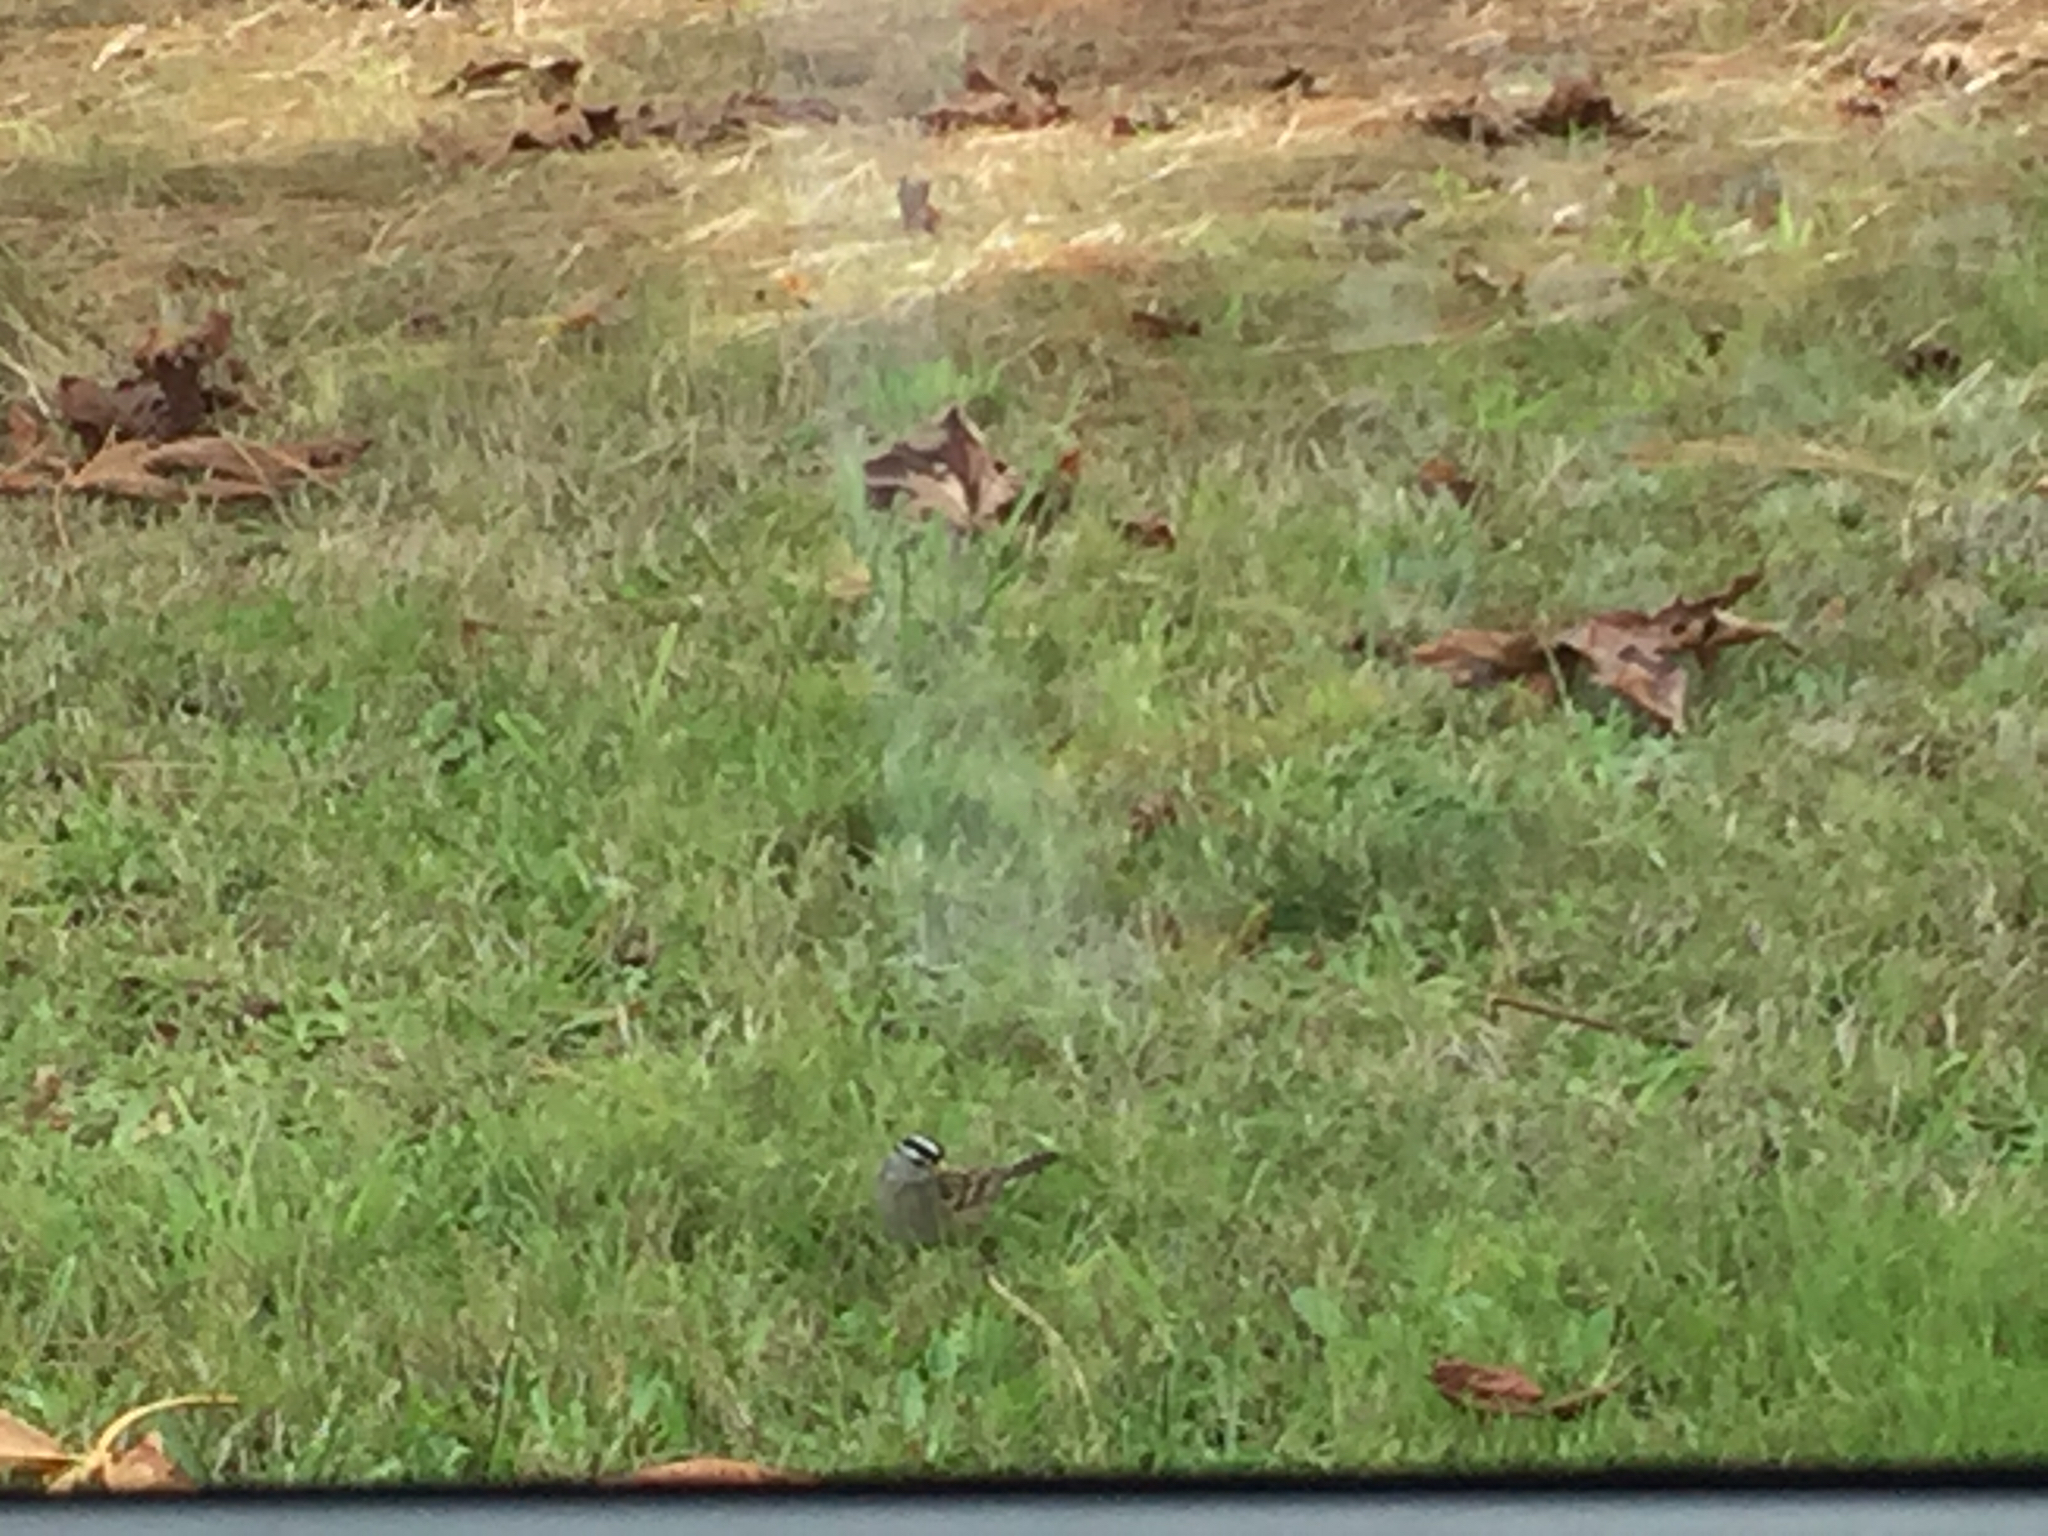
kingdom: Animalia
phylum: Chordata
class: Aves
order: Passeriformes
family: Passerellidae
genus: Zonotrichia
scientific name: Zonotrichia leucophrys
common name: White-crowned sparrow
